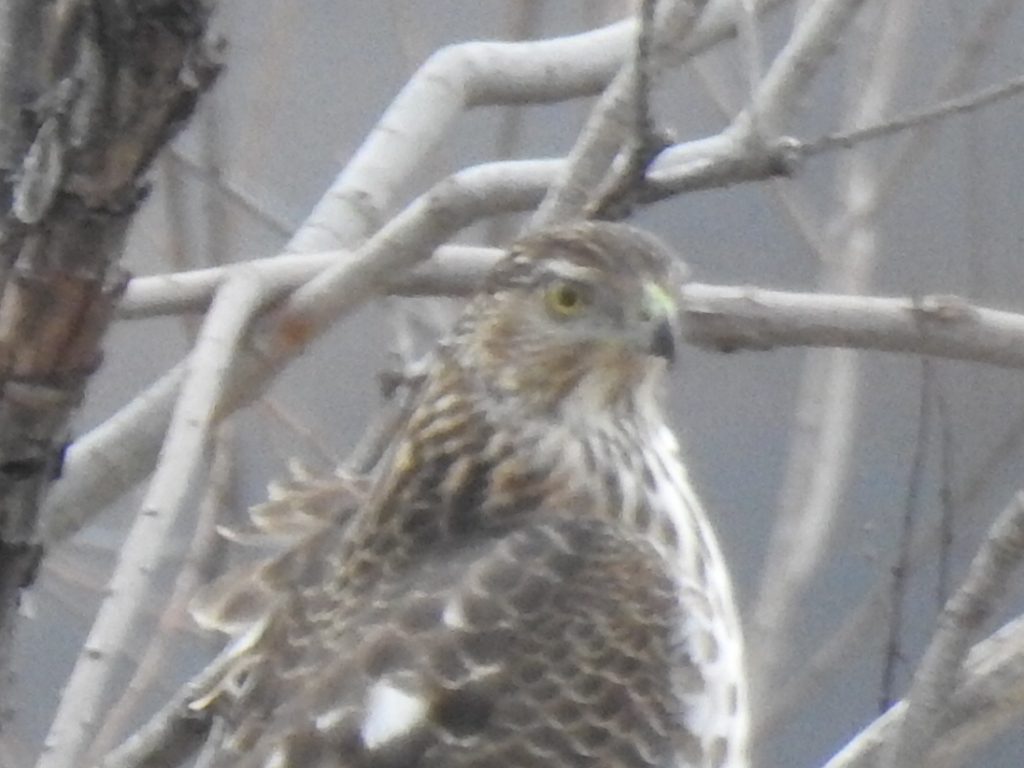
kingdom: Animalia
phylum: Chordata
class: Aves
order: Accipitriformes
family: Accipitridae
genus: Accipiter
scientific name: Accipiter cooperii
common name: Cooper's hawk
